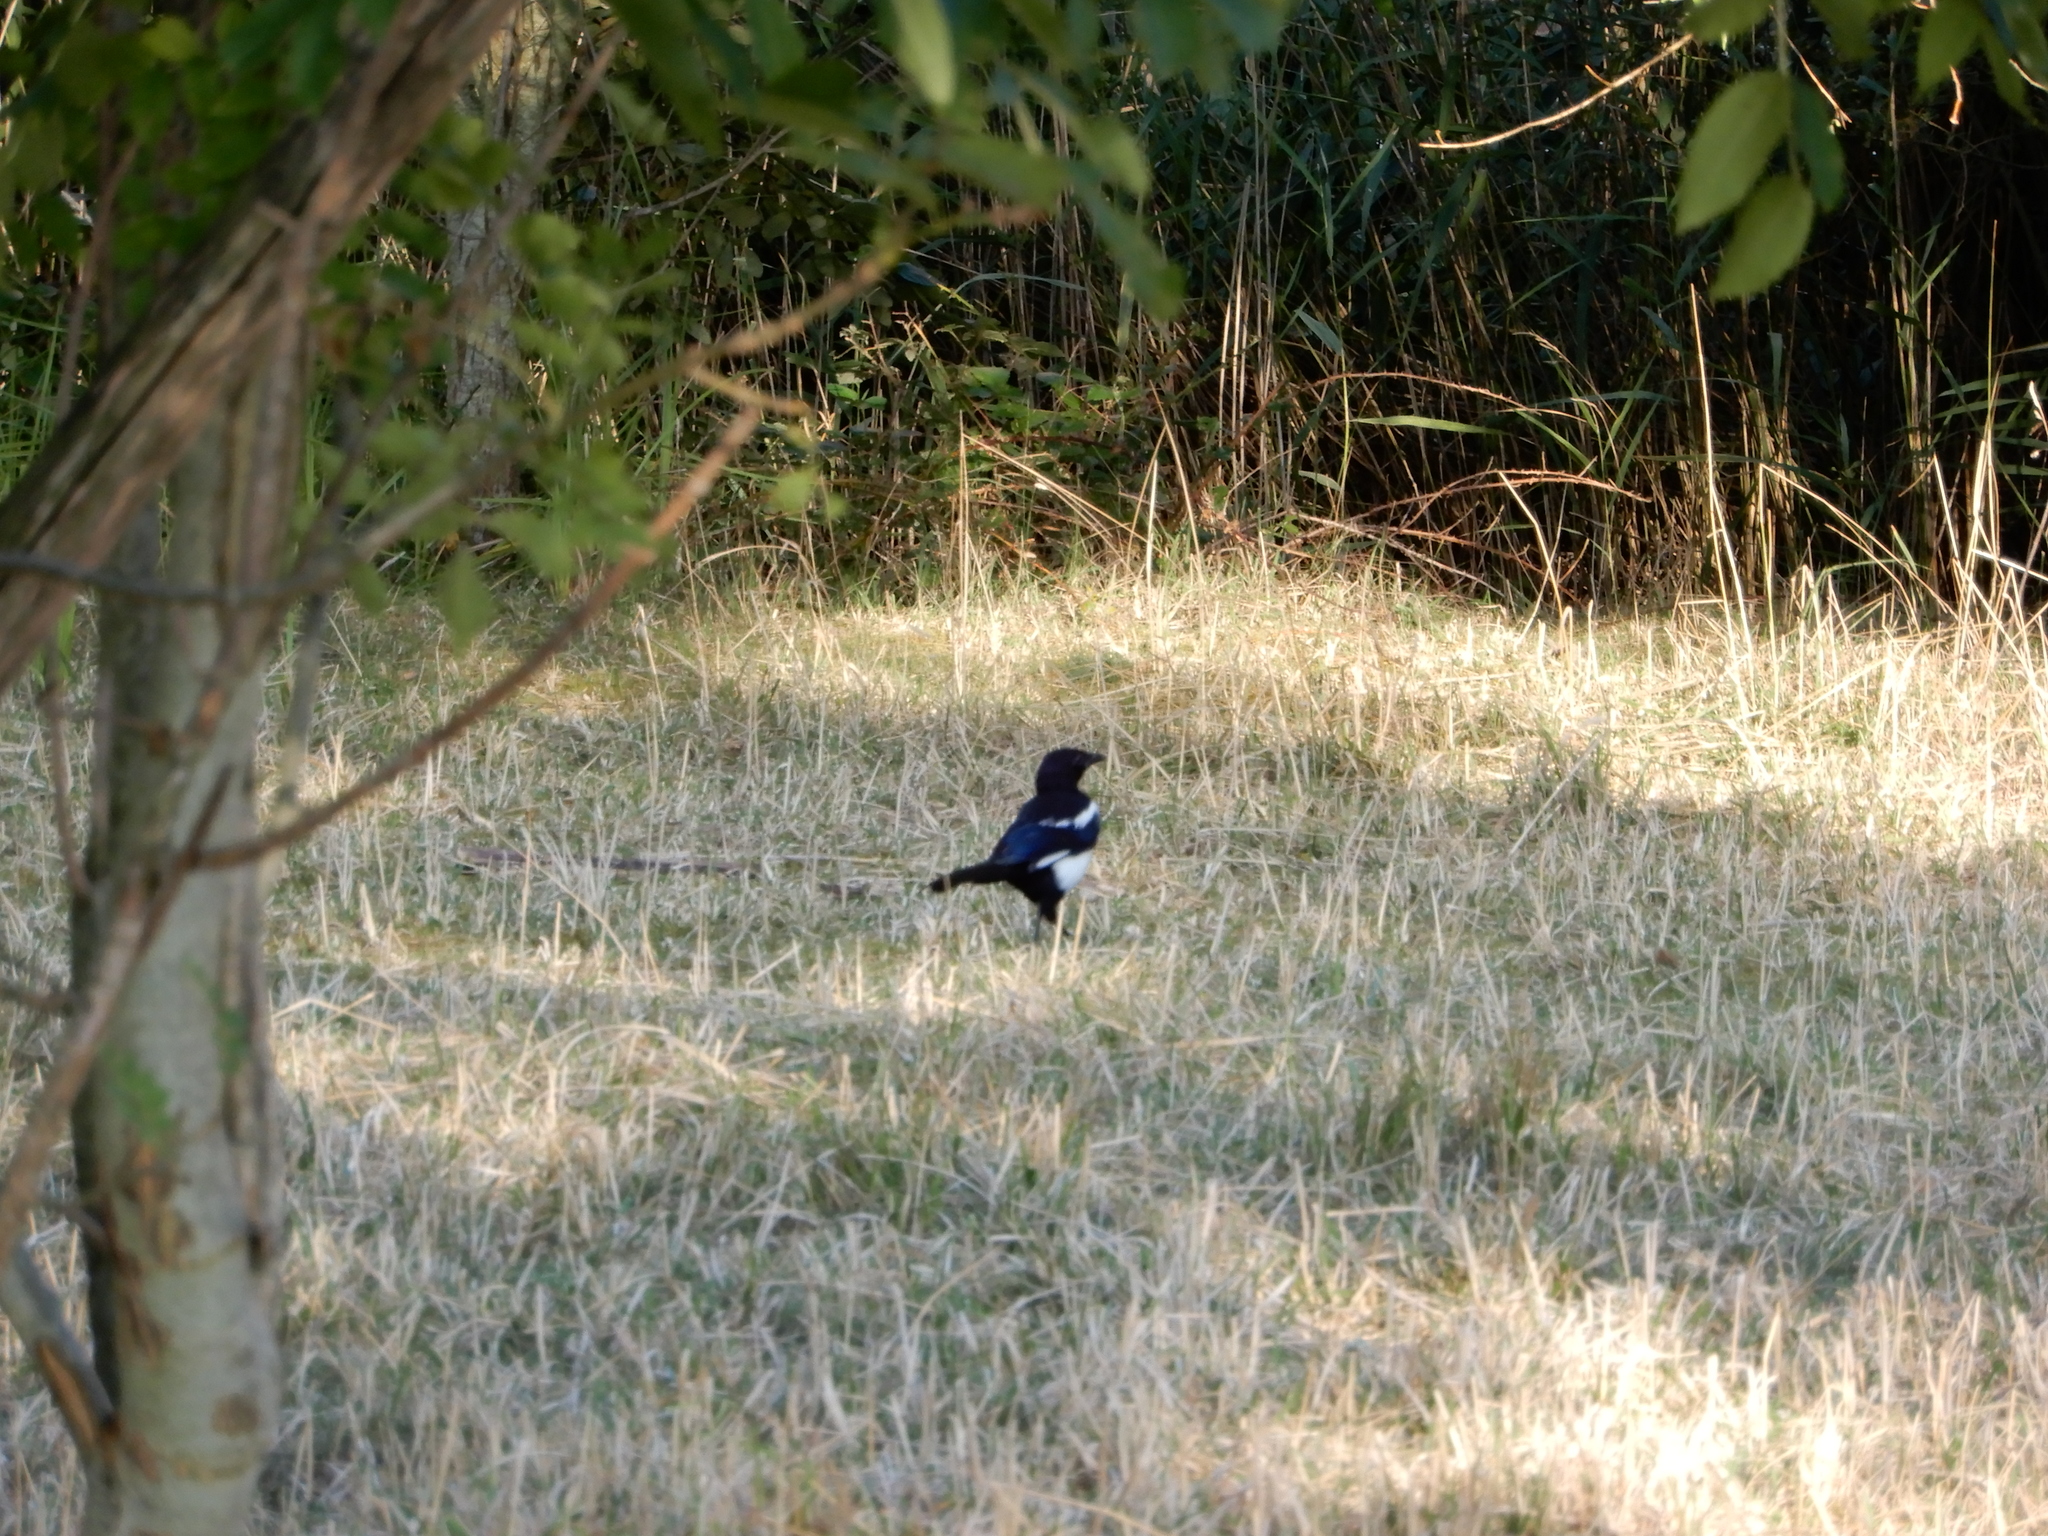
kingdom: Animalia
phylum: Chordata
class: Aves
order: Passeriformes
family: Corvidae
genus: Pica
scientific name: Pica pica
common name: Eurasian magpie
